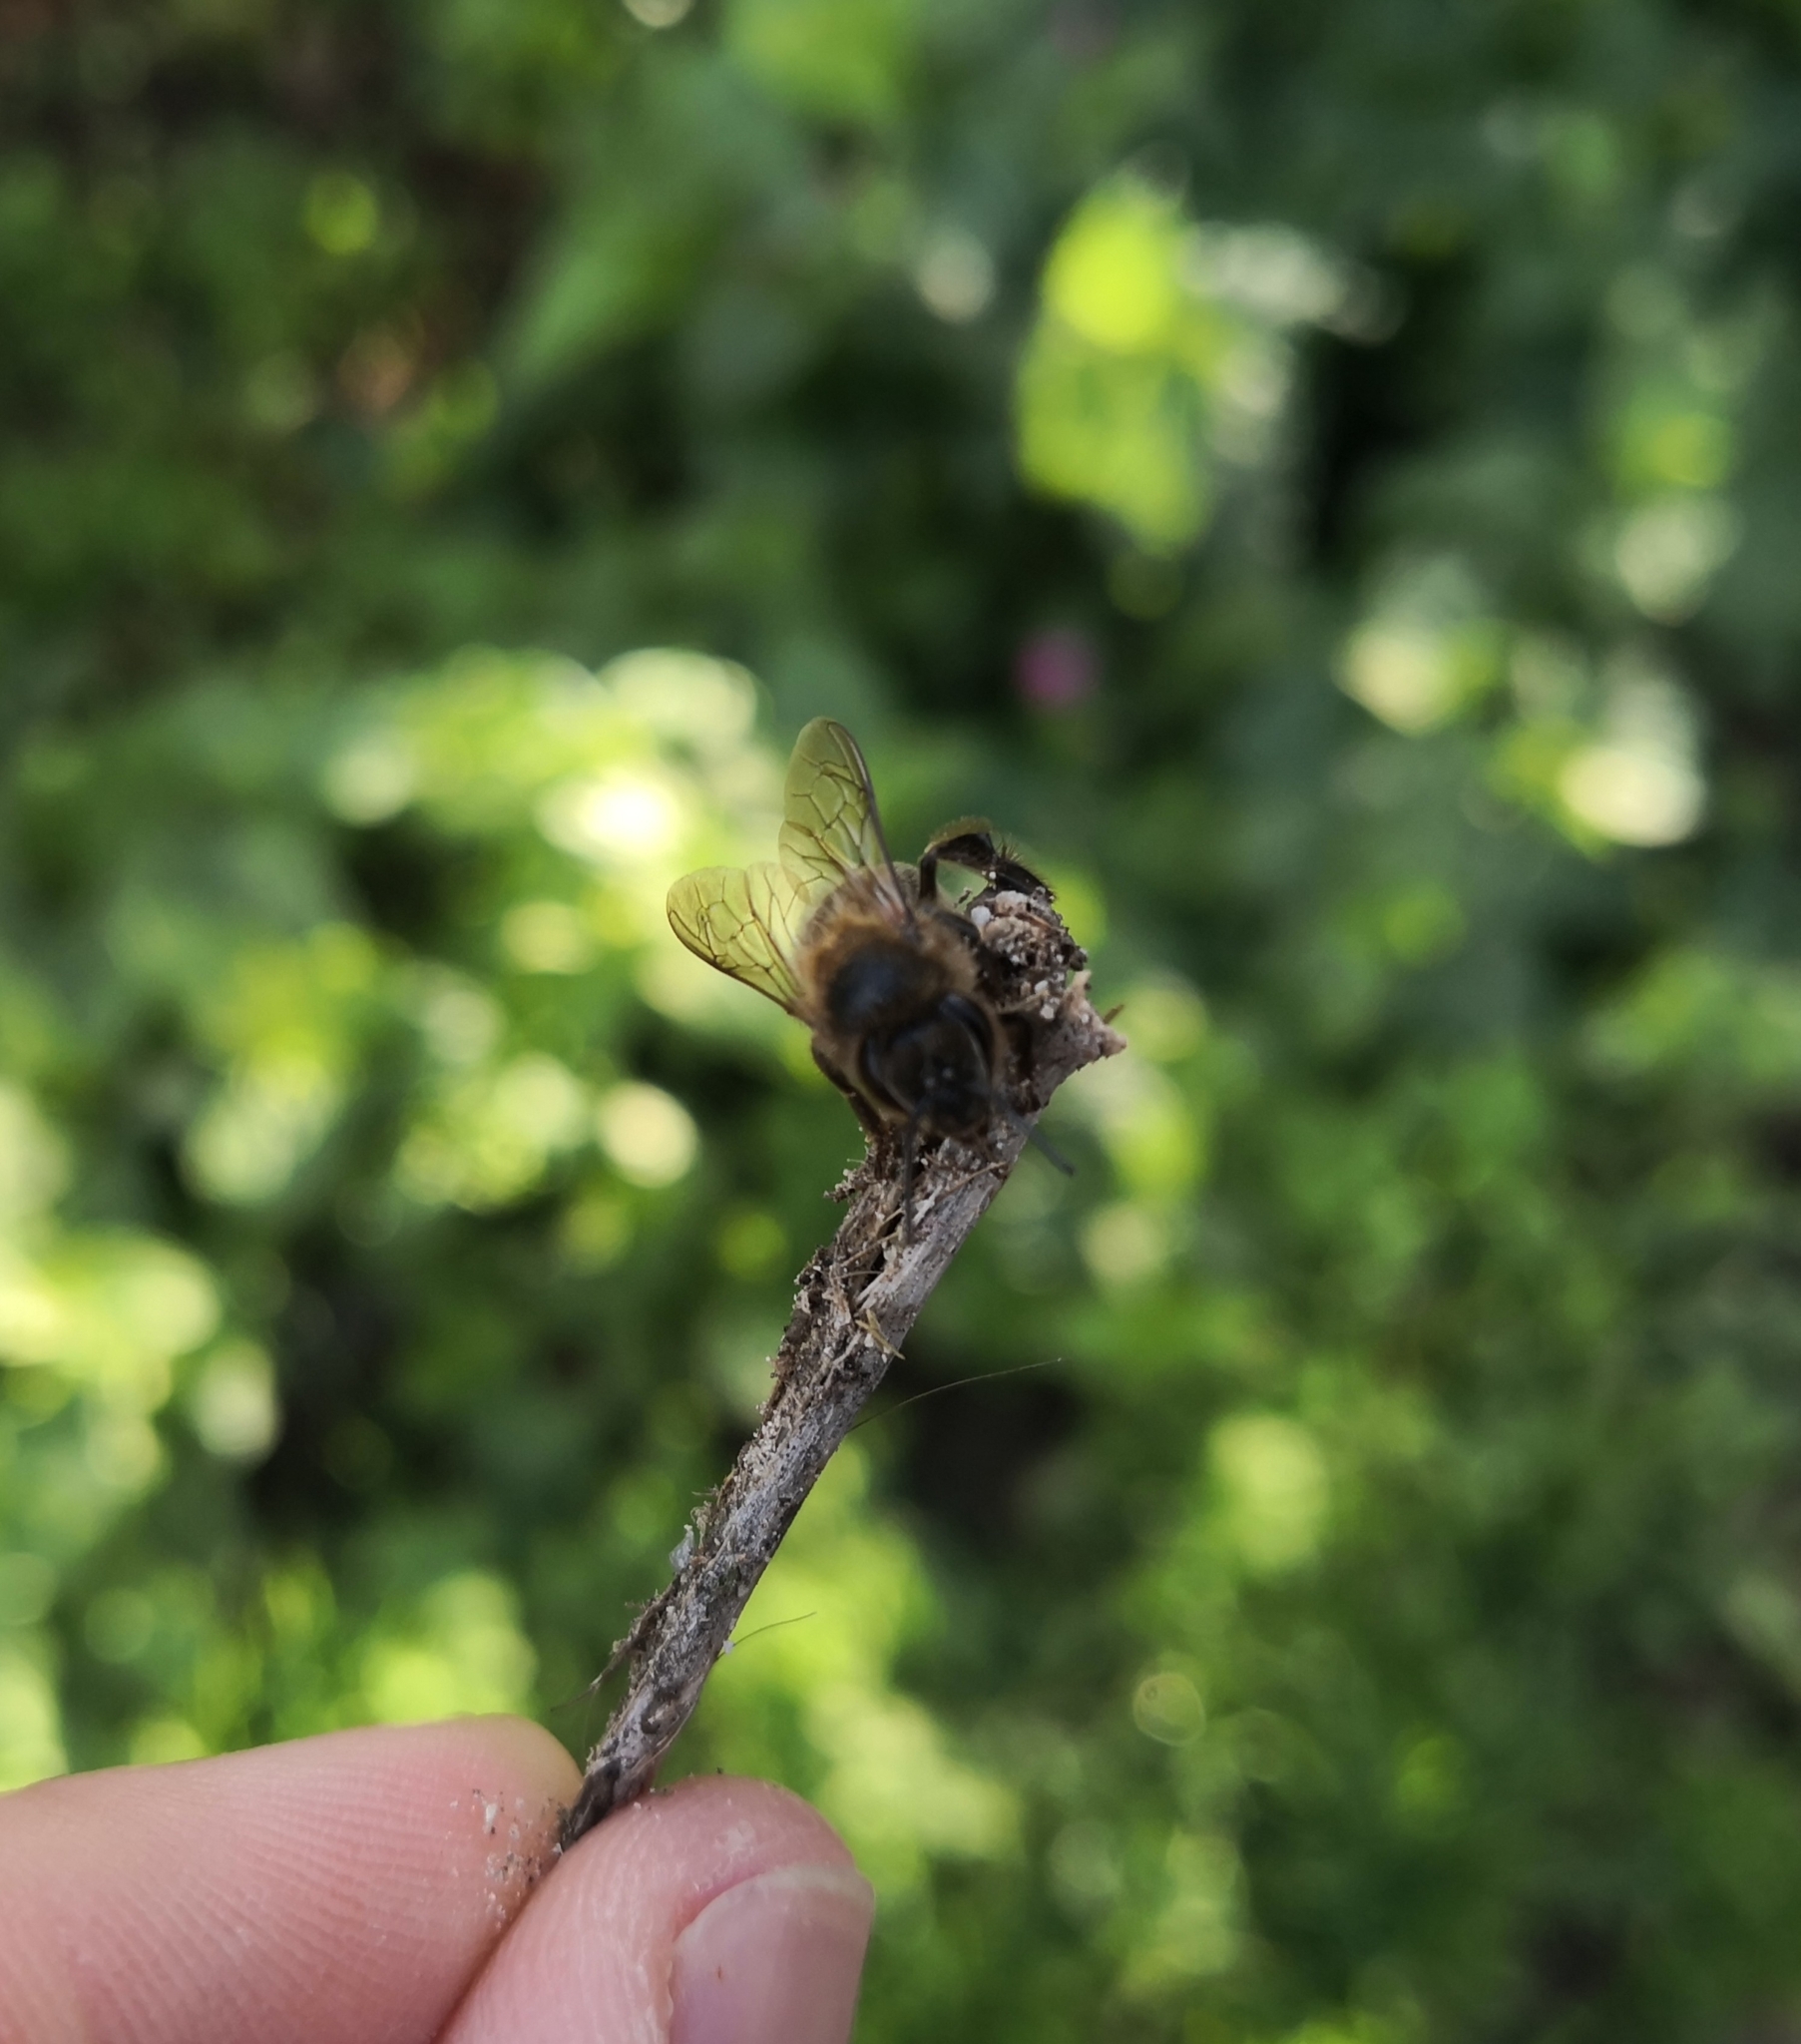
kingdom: Animalia
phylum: Arthropoda
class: Insecta
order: Hymenoptera
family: Apidae
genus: Apis
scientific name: Apis mellifera
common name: Honey bee
